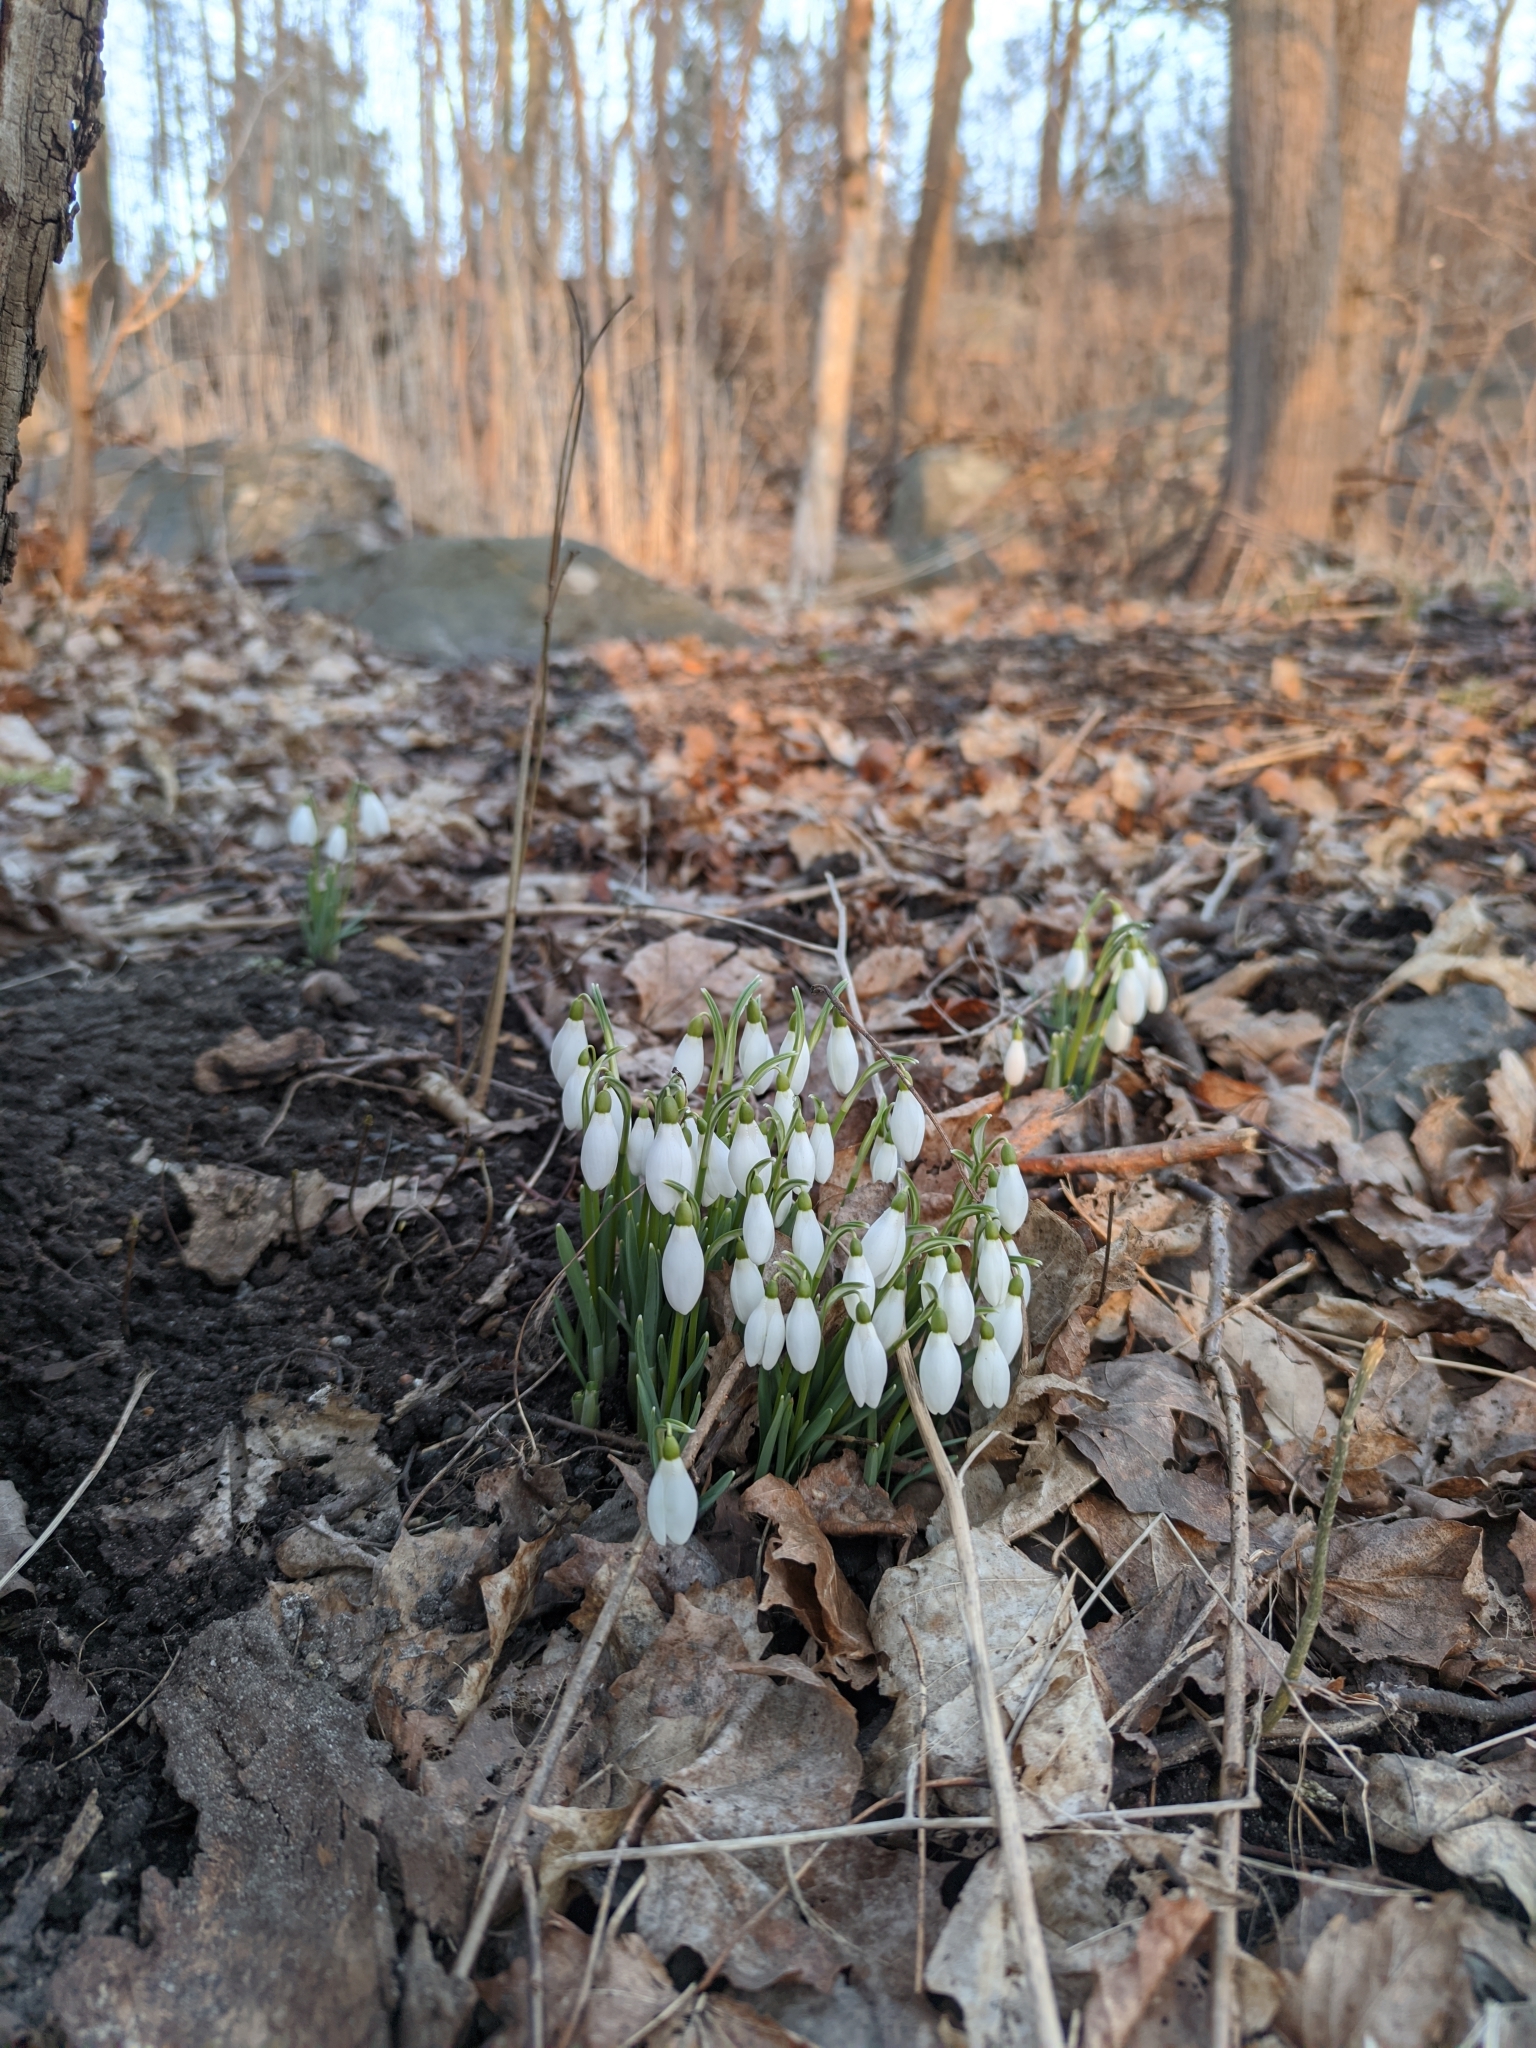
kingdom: Plantae
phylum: Tracheophyta
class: Liliopsida
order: Asparagales
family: Amaryllidaceae
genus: Galanthus
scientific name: Galanthus nivalis
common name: Snowdrop
